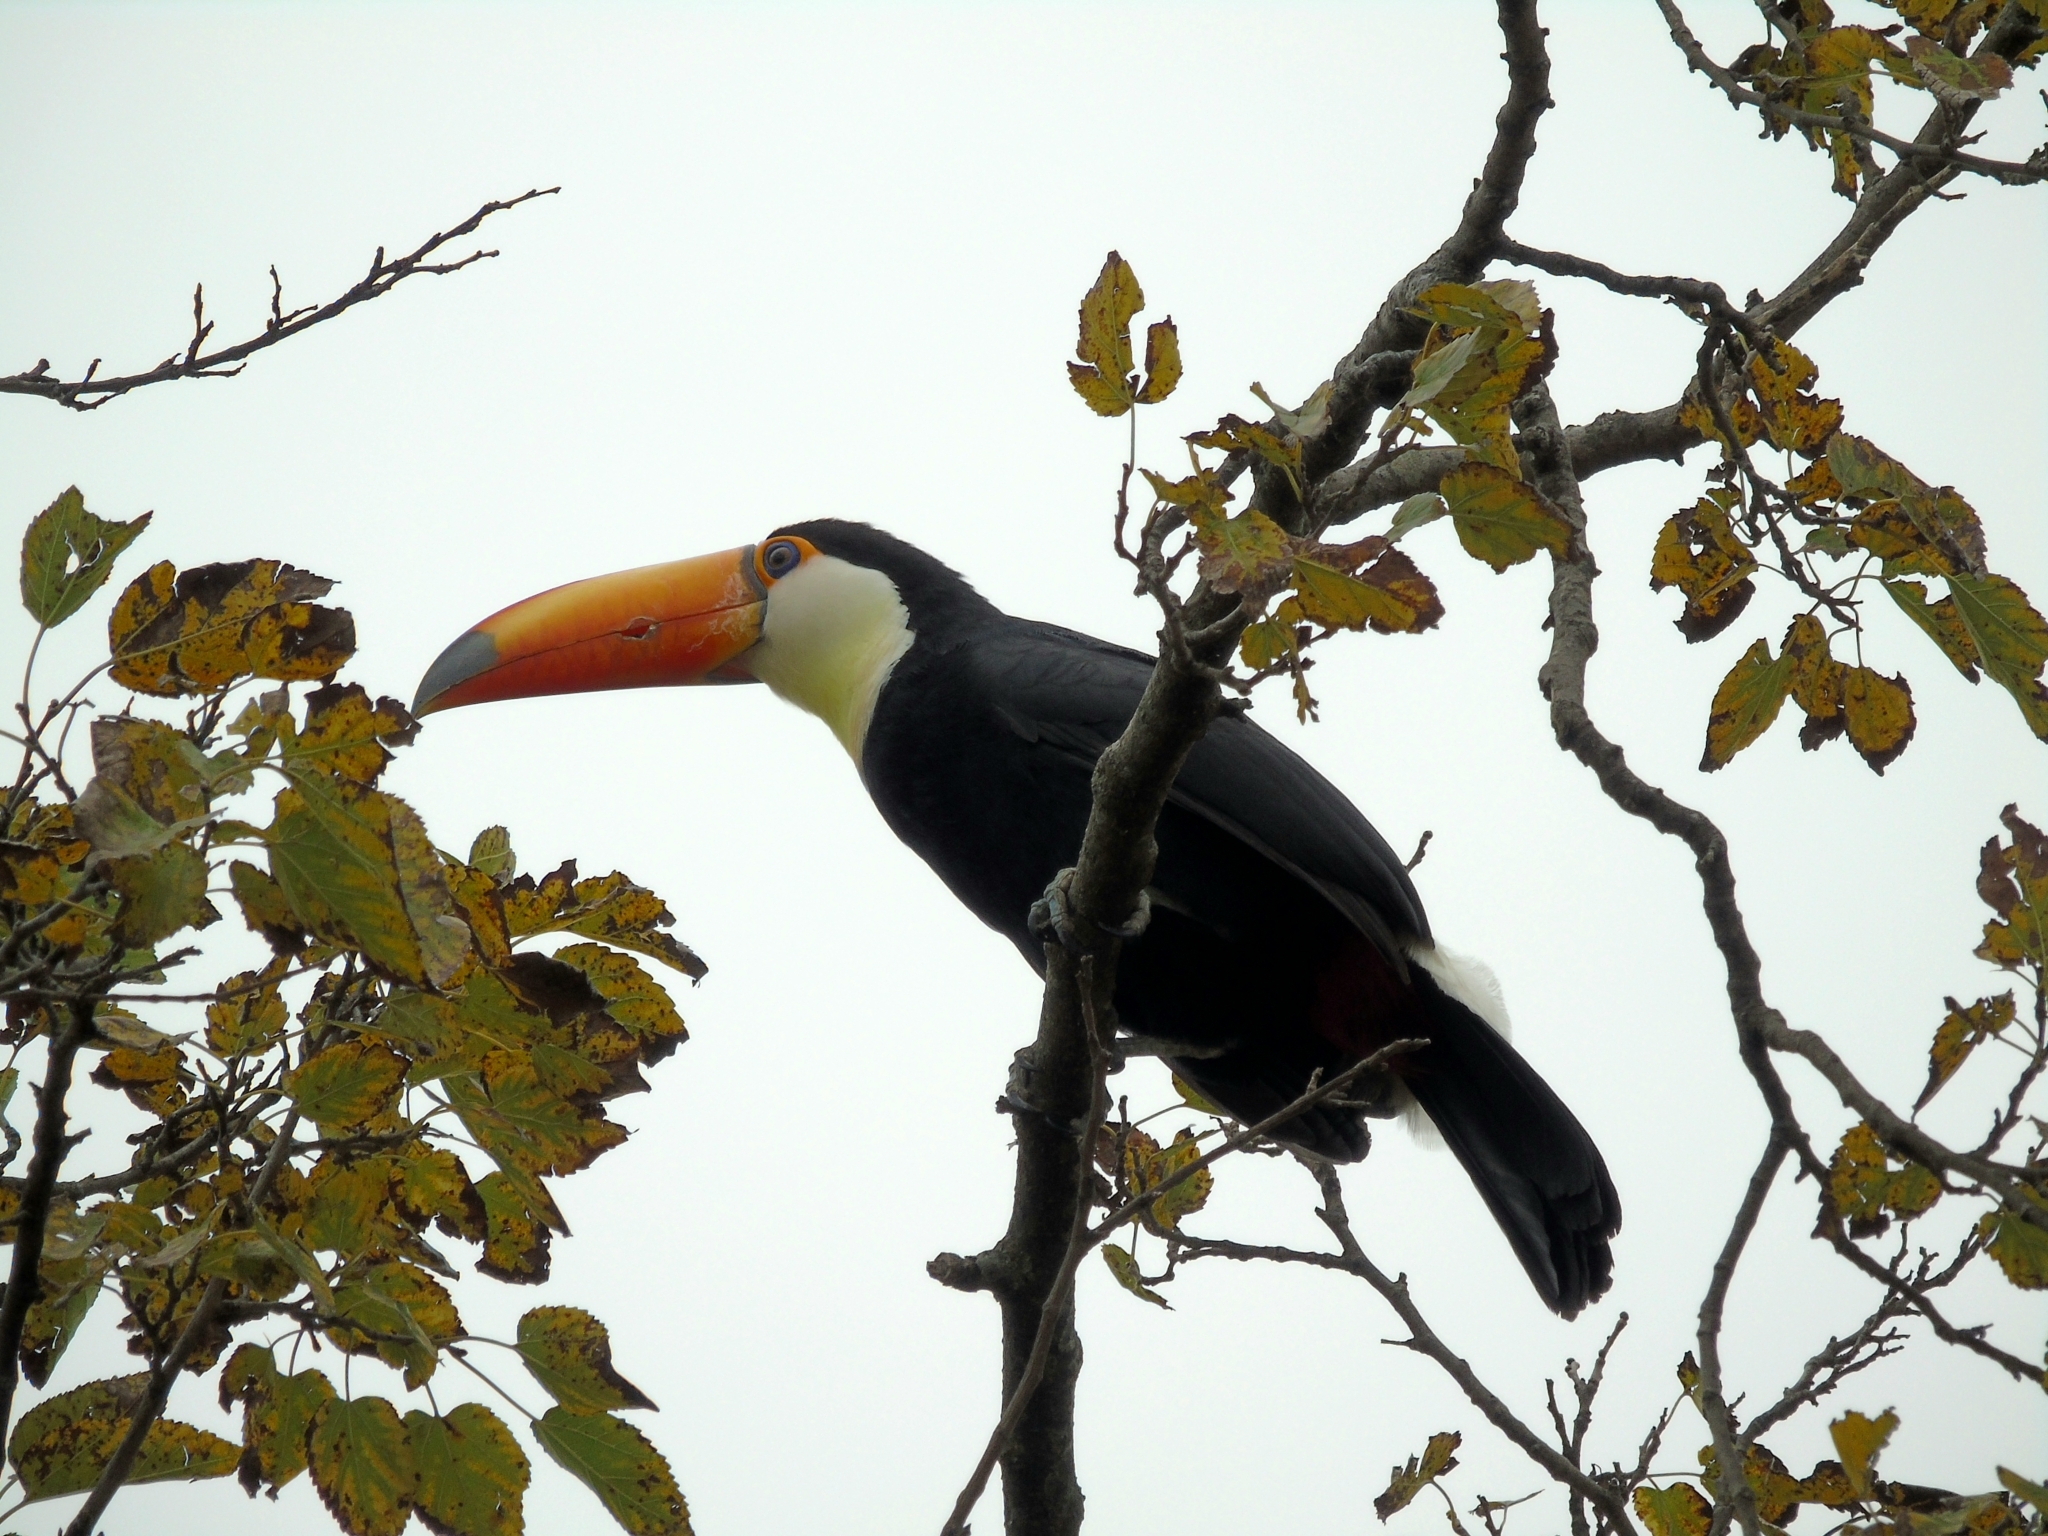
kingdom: Animalia
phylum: Chordata
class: Aves
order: Piciformes
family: Ramphastidae
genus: Ramphastos
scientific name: Ramphastos toco
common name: Toco toucan
